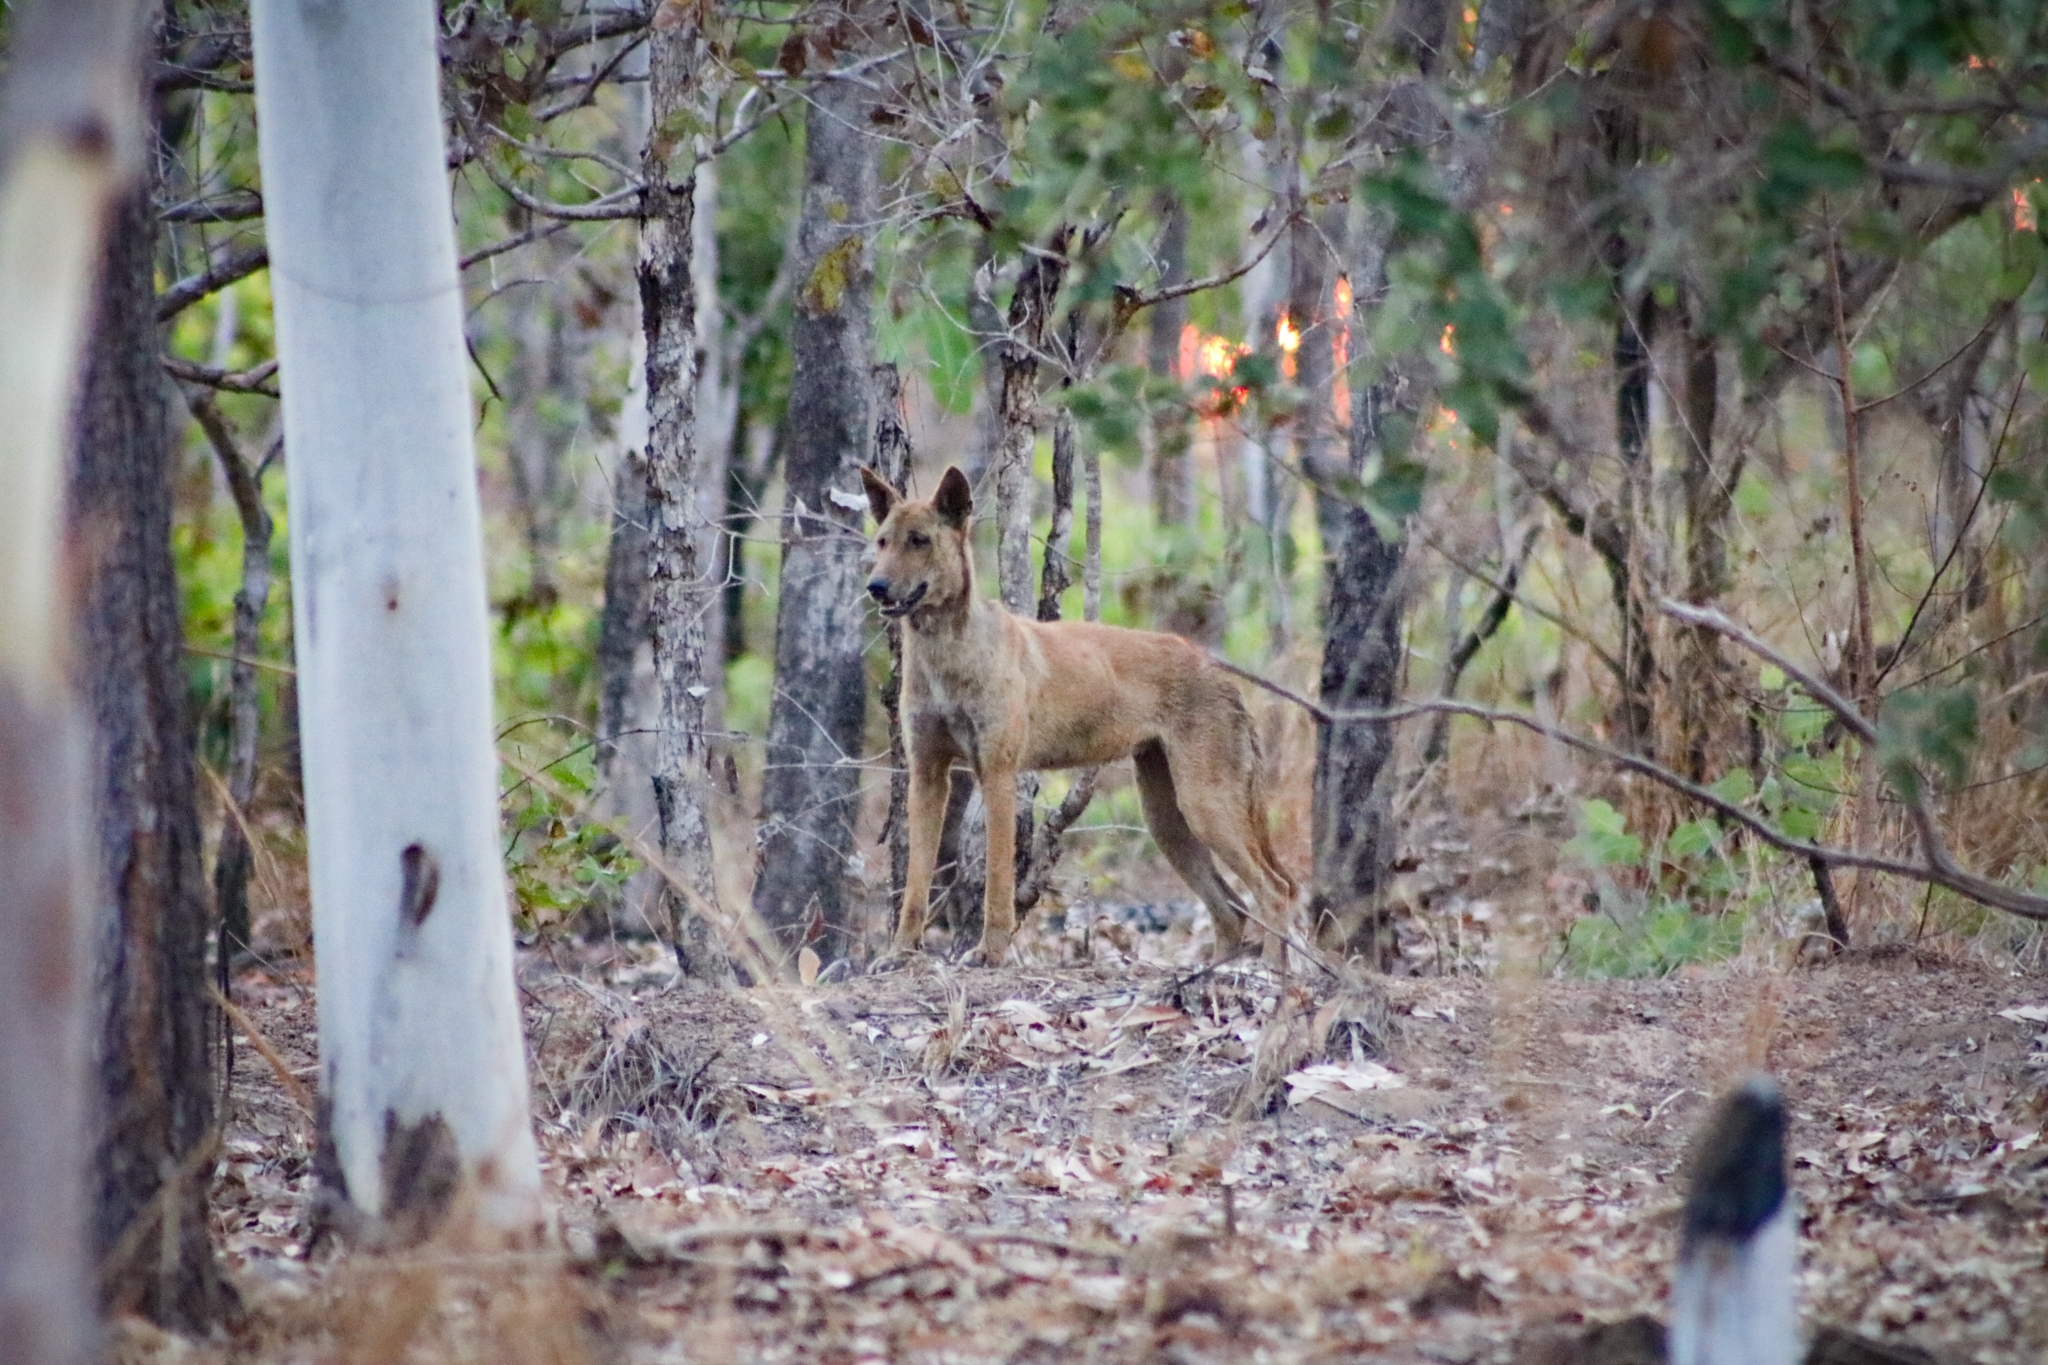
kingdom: Animalia
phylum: Chordata
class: Mammalia
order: Carnivora
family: Canidae
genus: Canis
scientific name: Canis lupus
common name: Gray wolf
